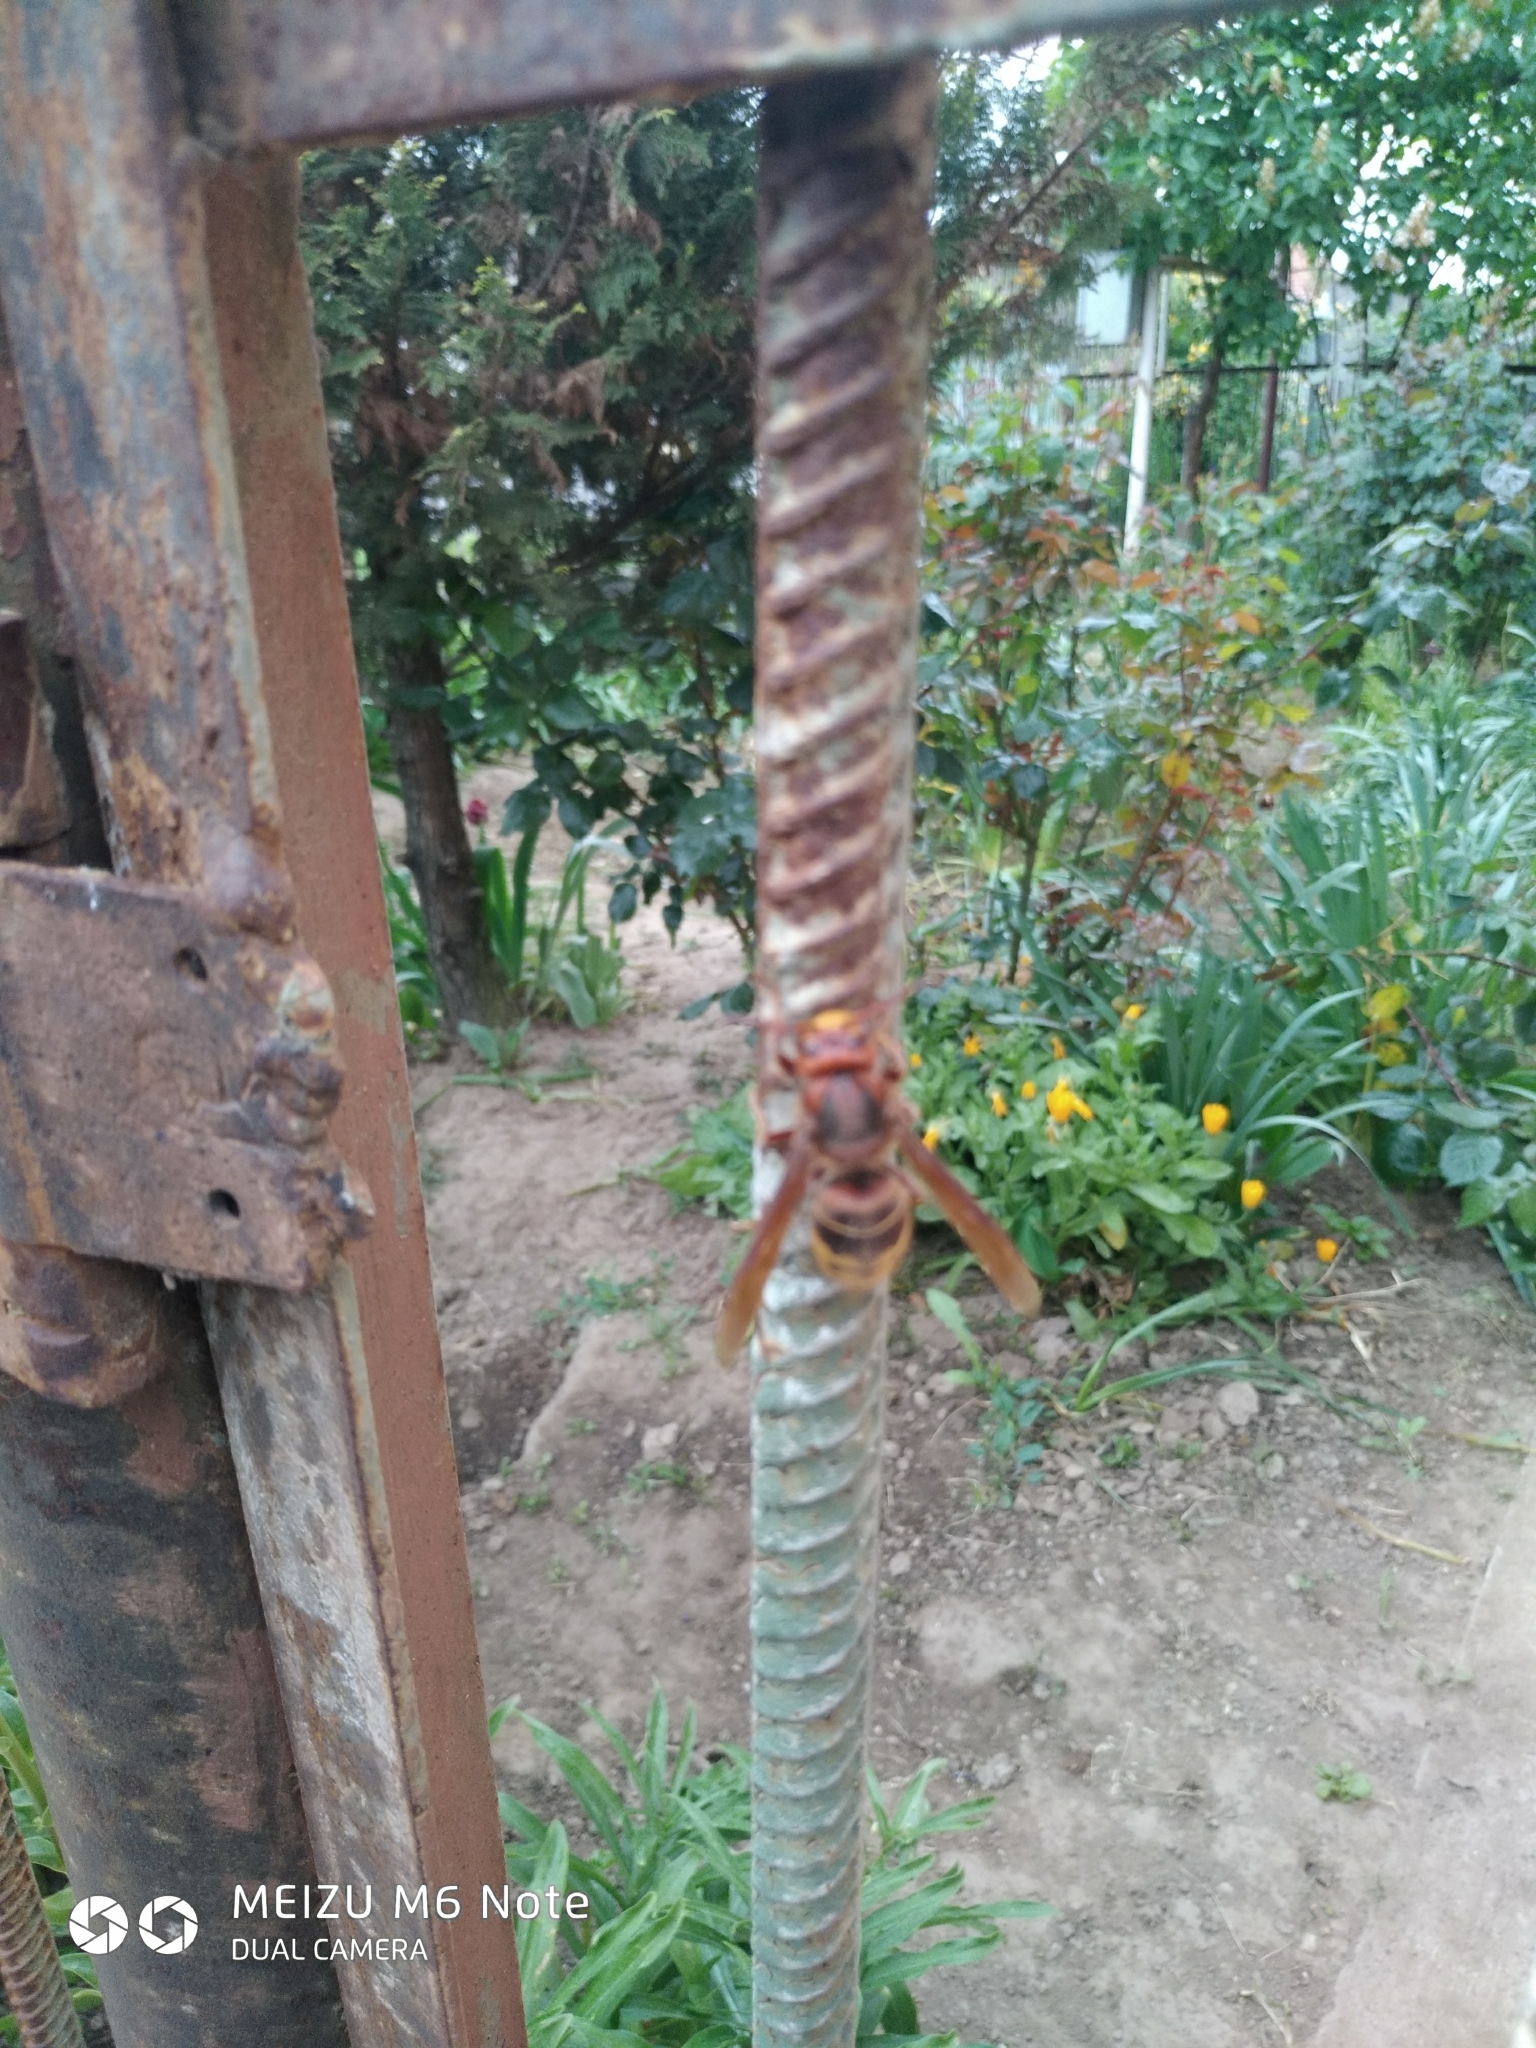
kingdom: Animalia
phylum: Arthropoda
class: Insecta
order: Hymenoptera
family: Vespidae
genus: Vespa
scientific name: Vespa crabro
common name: Hornet
